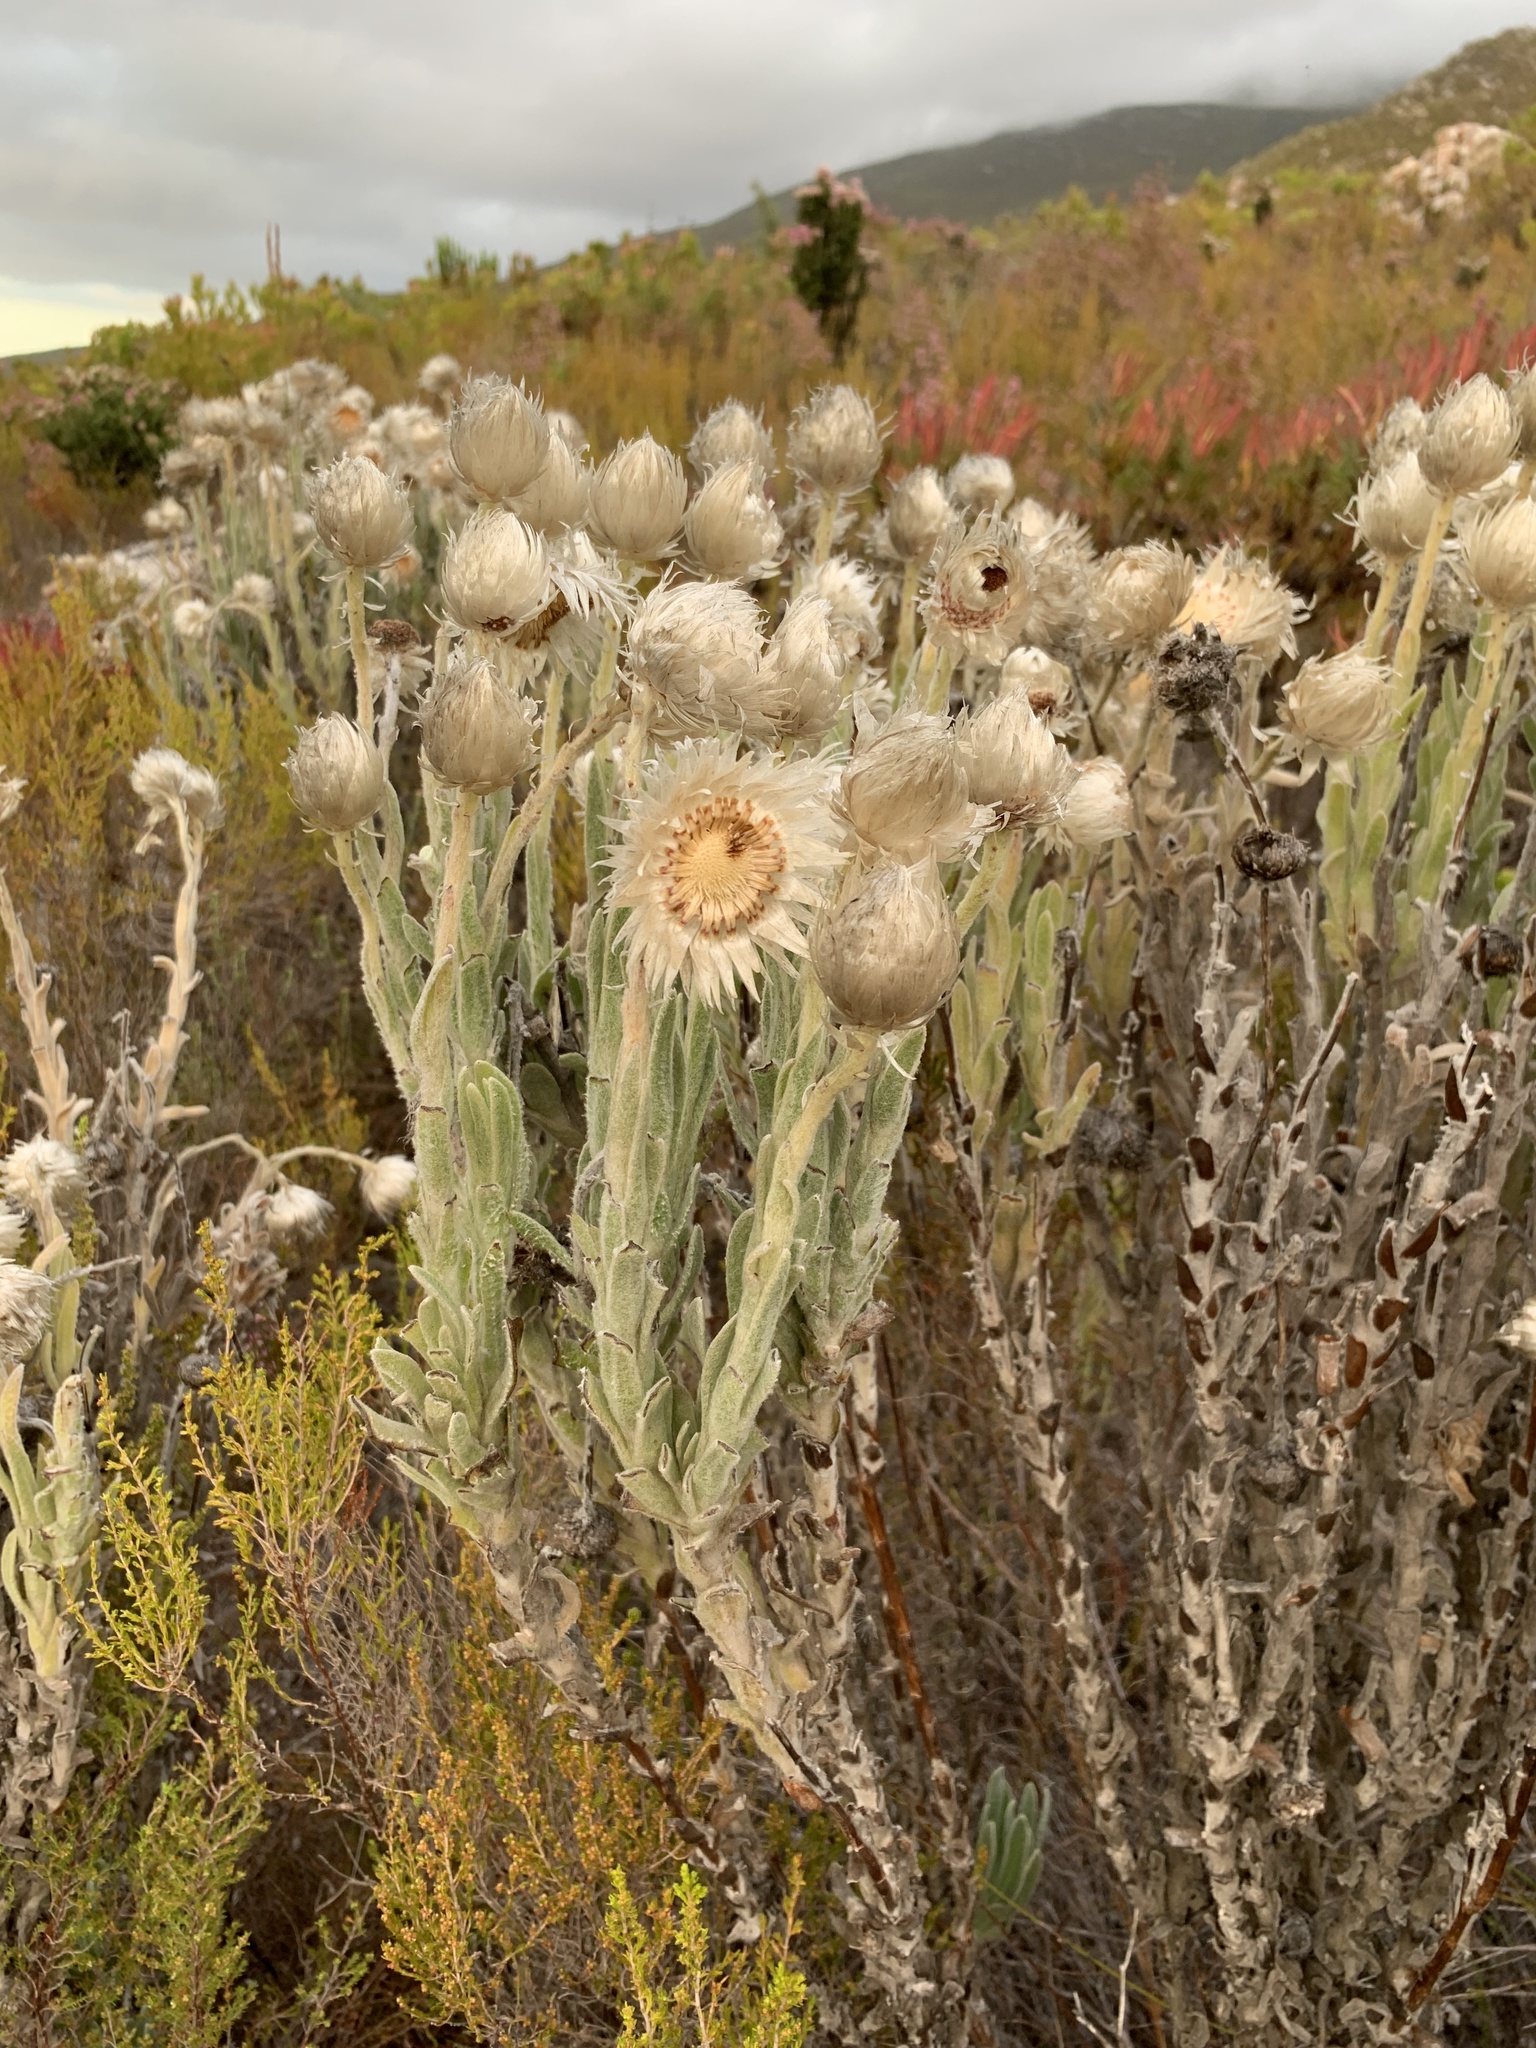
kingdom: Plantae
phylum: Tracheophyta
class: Magnoliopsida
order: Asterales
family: Asteraceae
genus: Syncarpha
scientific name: Syncarpha vestita
